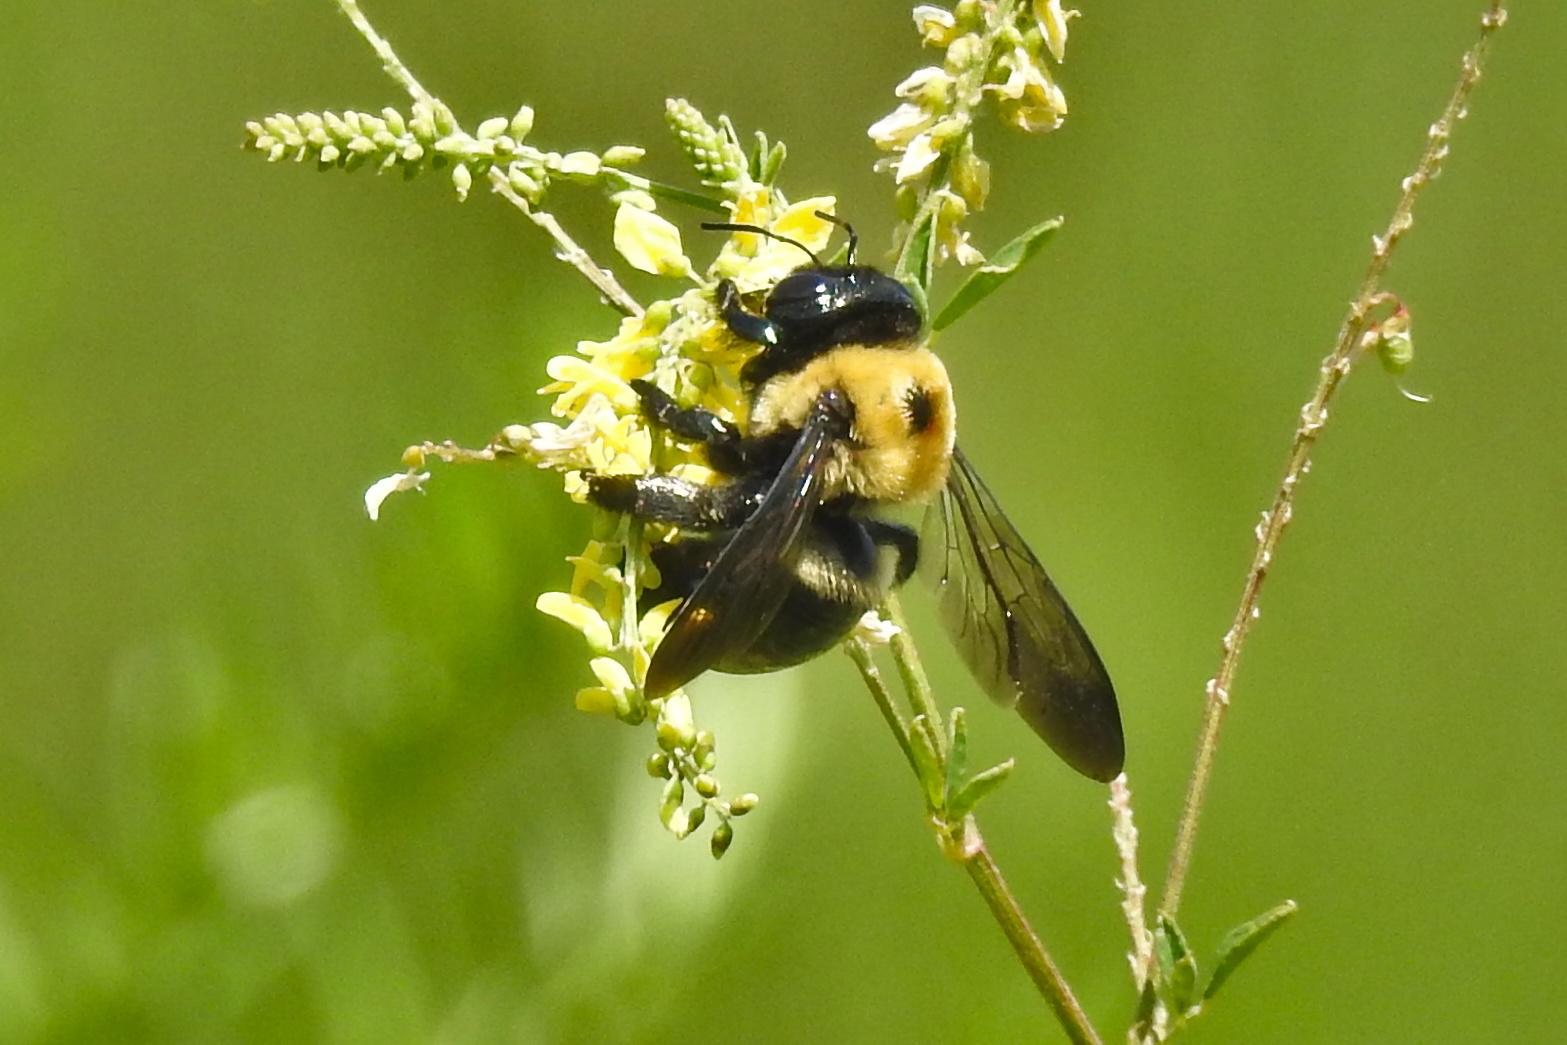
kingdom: Animalia
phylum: Arthropoda
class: Insecta
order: Hymenoptera
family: Apidae
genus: Xylocopa
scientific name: Xylocopa virginica
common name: Carpenter bee
